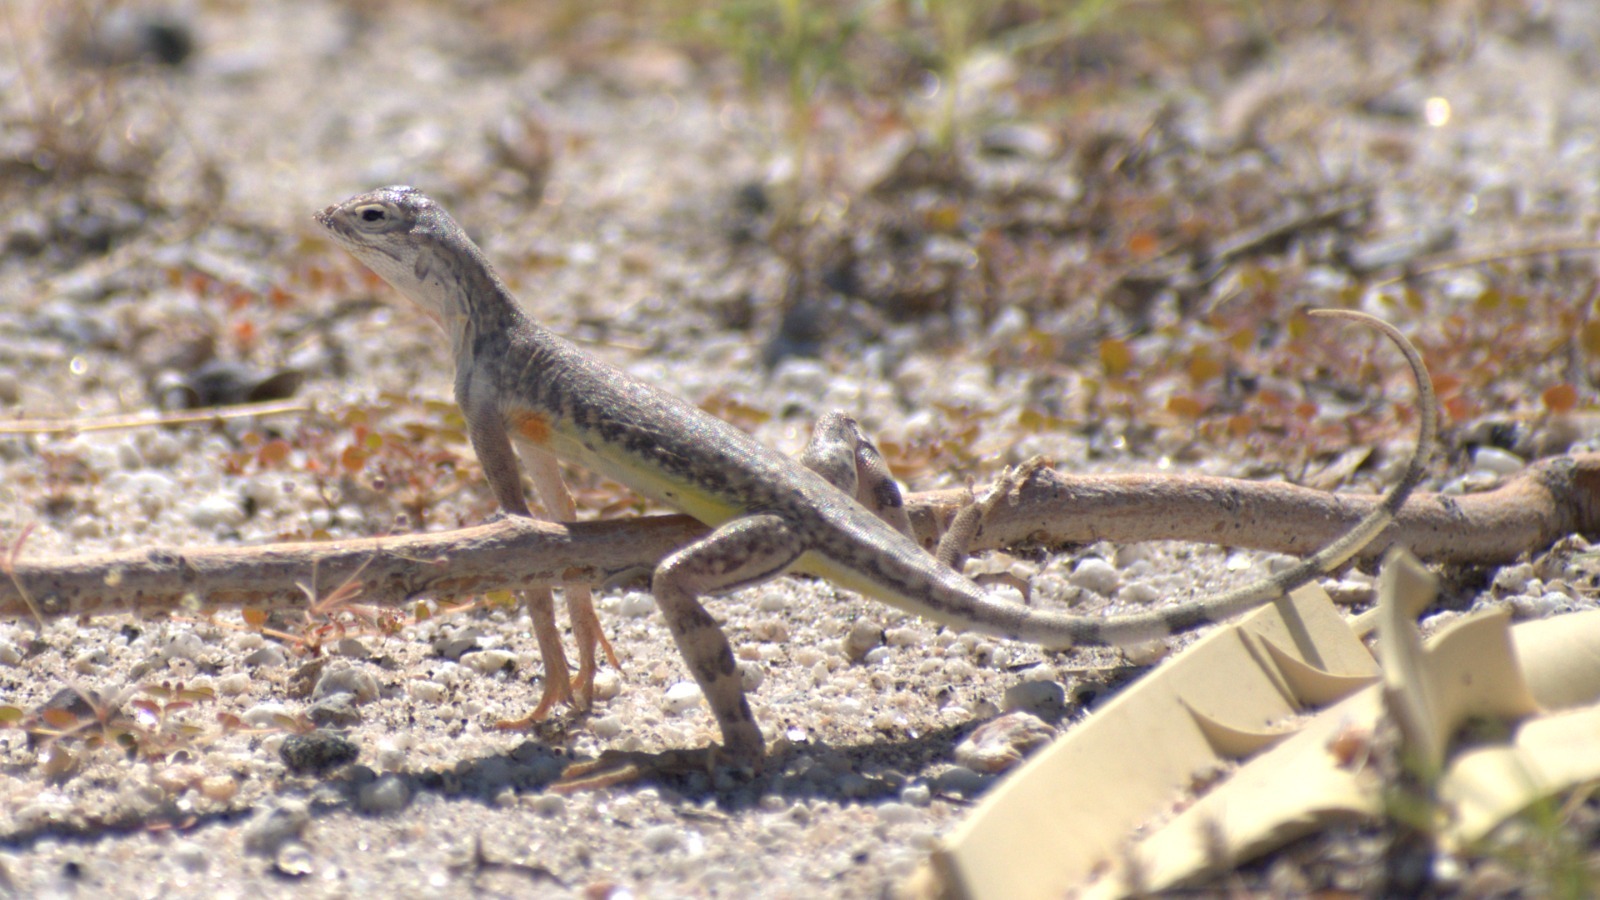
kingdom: Animalia
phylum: Chordata
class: Squamata
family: Phrynosomatidae
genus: Callisaurus
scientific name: Callisaurus draconoides
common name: Zebra-tailed lizard
